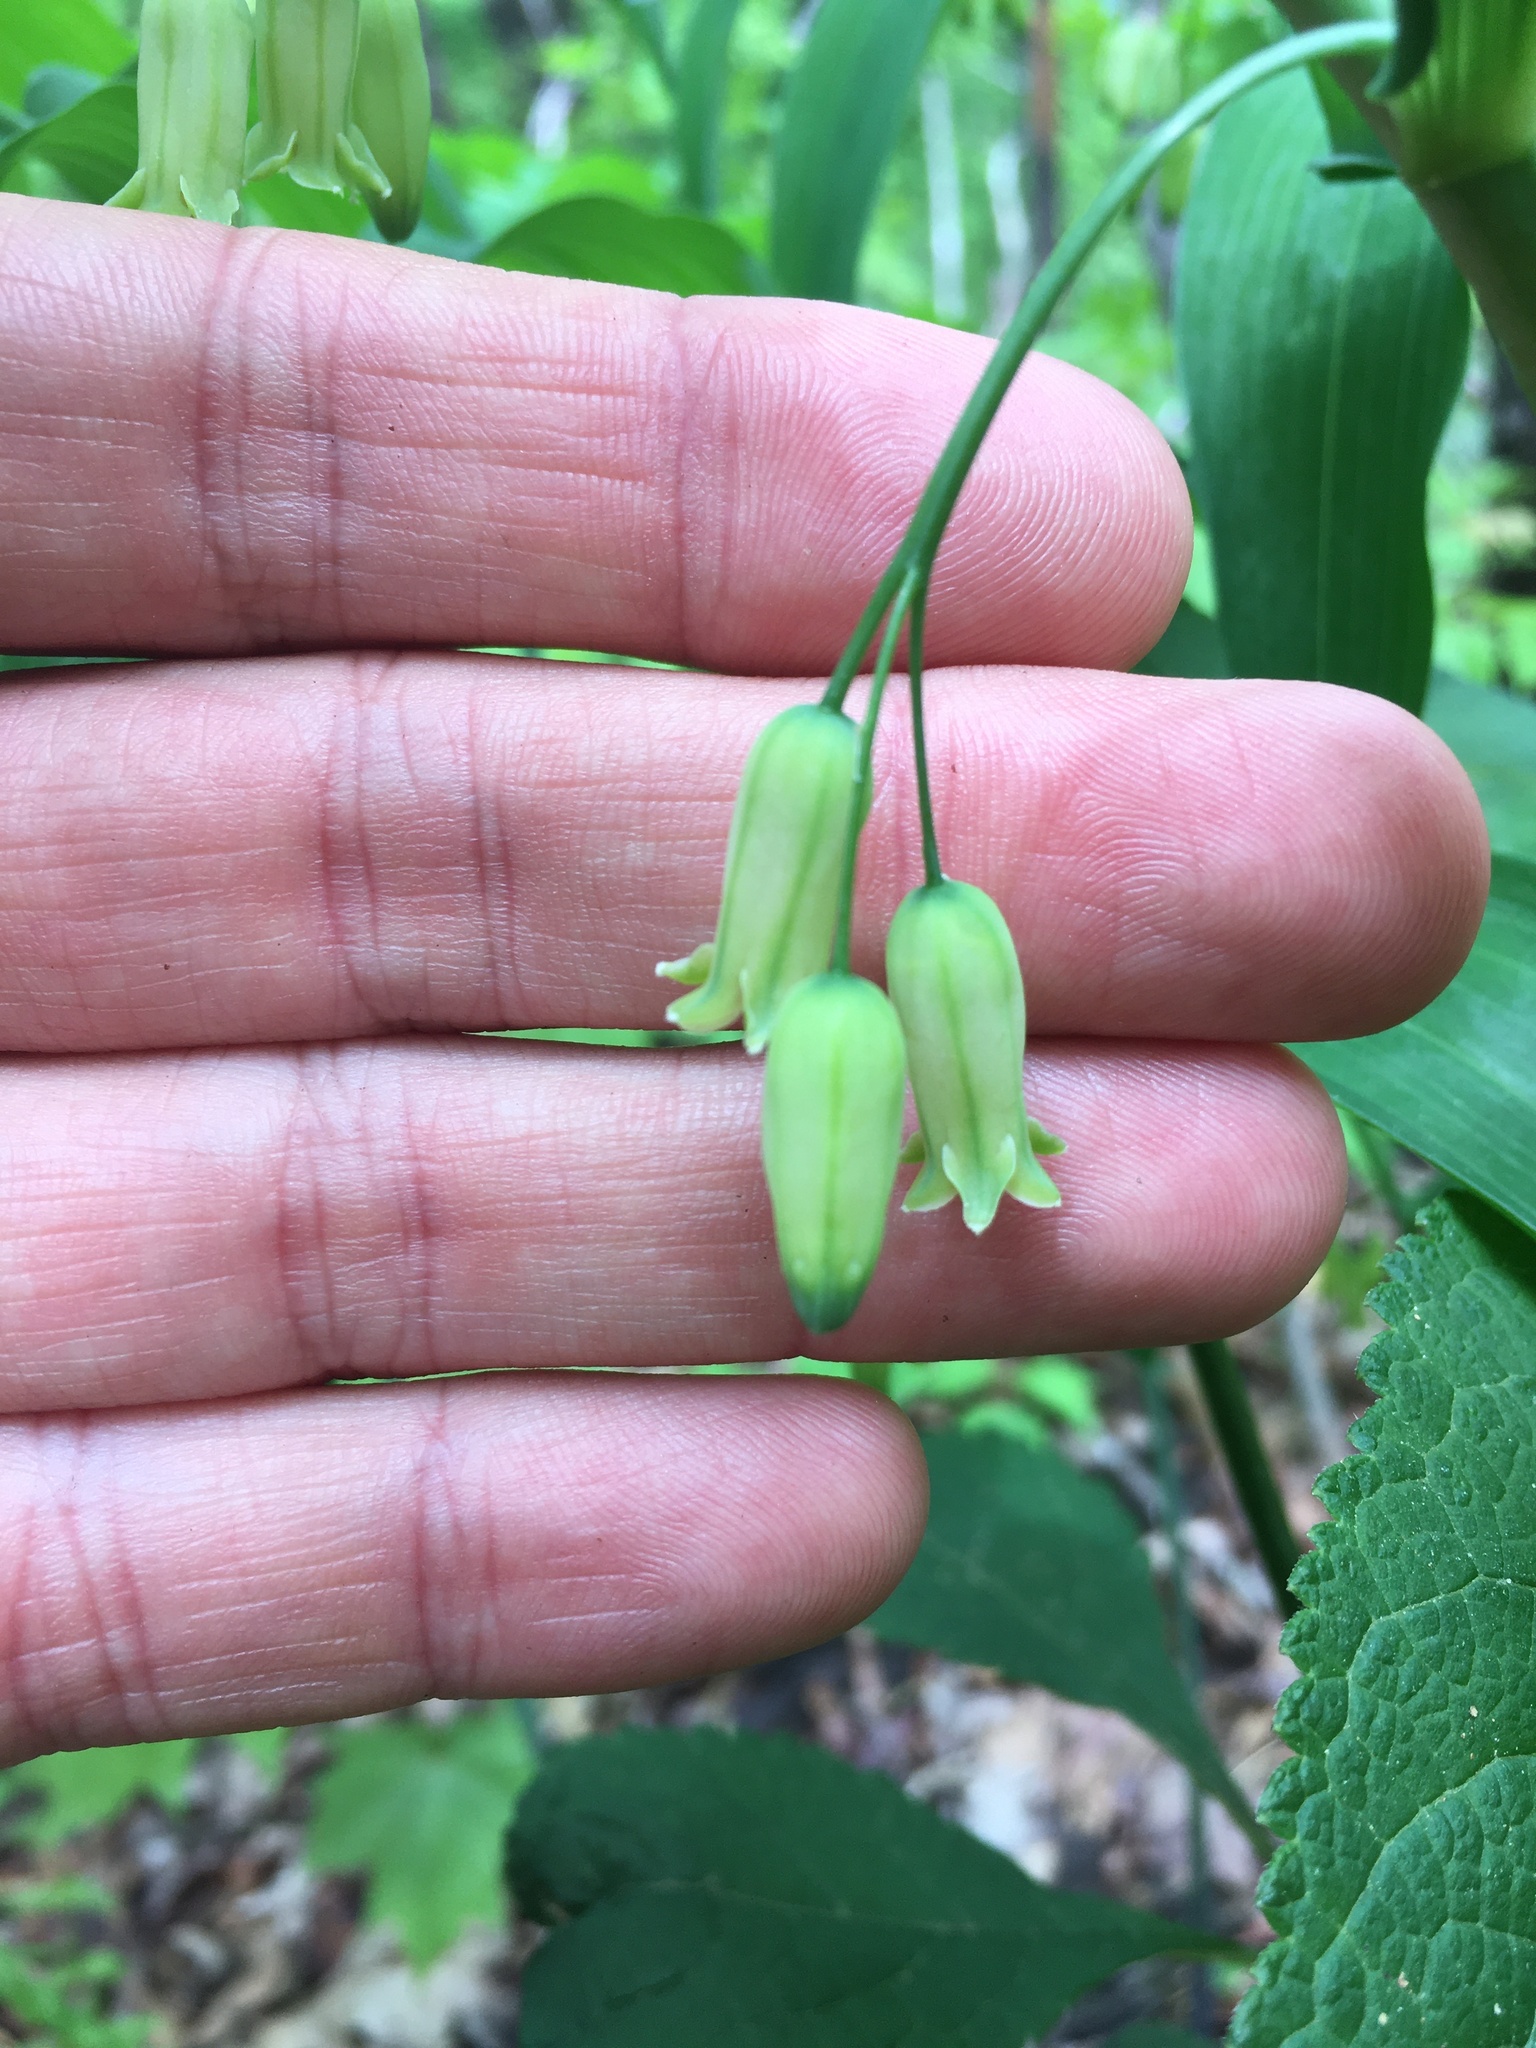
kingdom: Plantae
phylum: Tracheophyta
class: Liliopsida
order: Asparagales
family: Asparagaceae
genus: Polygonatum
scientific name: Polygonatum biflorum
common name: American solomon's-seal
